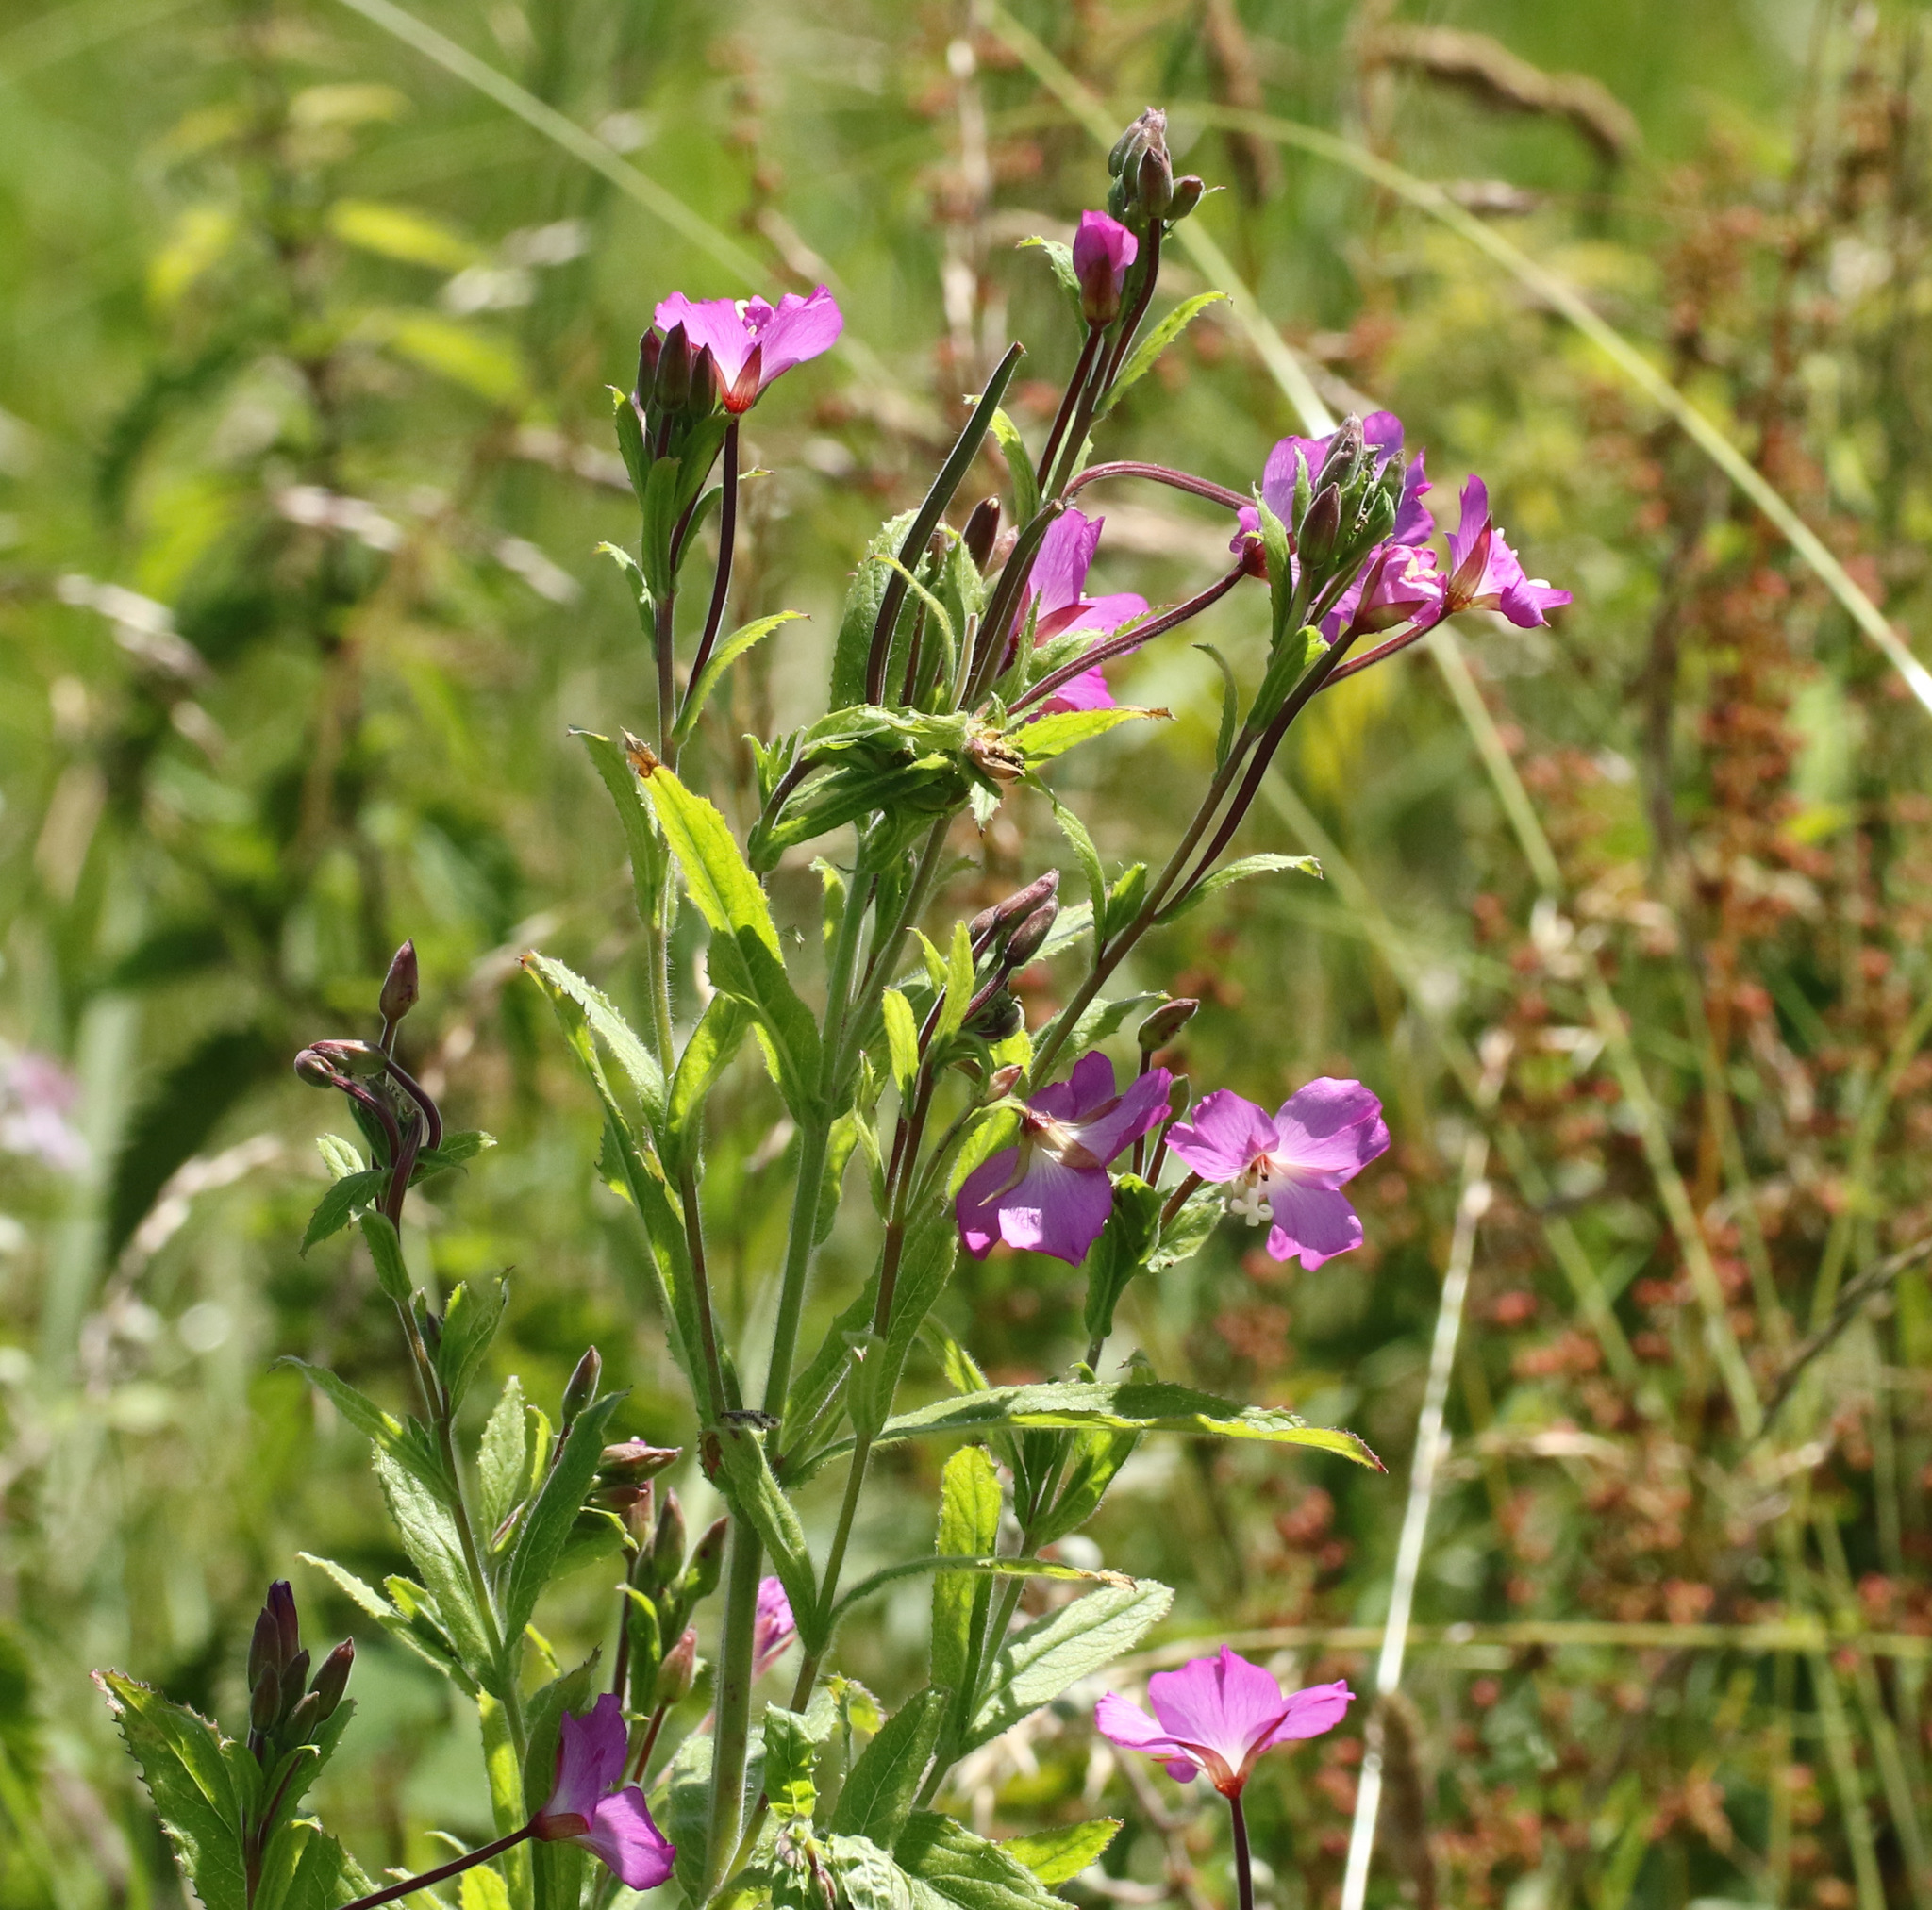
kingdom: Plantae
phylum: Tracheophyta
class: Magnoliopsida
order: Myrtales
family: Onagraceae
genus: Epilobium
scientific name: Epilobium hirsutum
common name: Great willowherb
